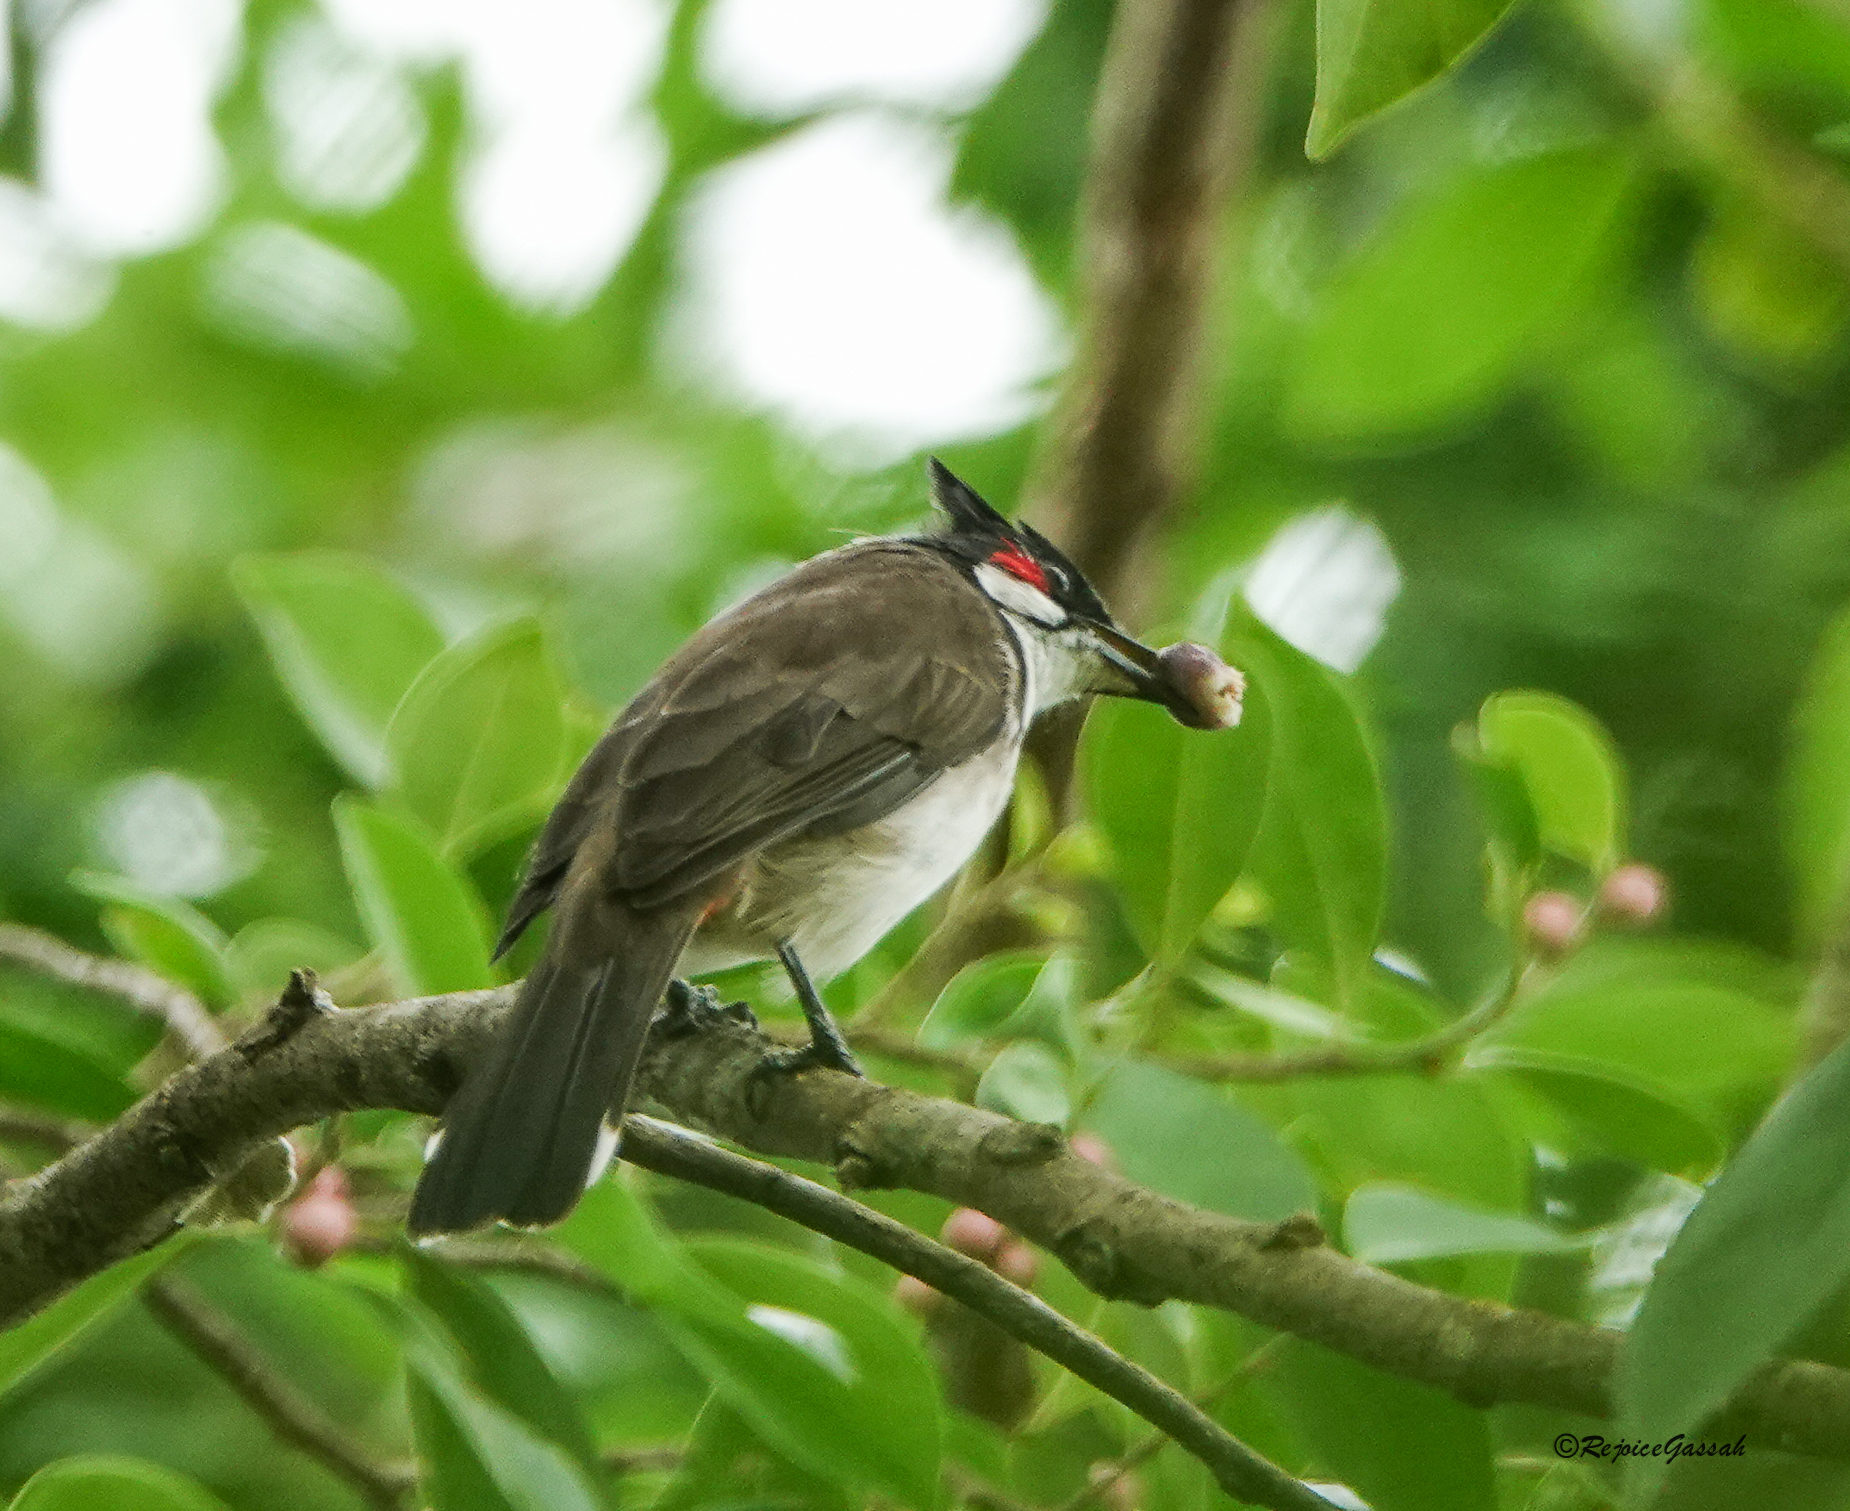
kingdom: Animalia
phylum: Chordata
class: Aves
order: Passeriformes
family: Pycnonotidae
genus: Pycnonotus
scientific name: Pycnonotus jocosus
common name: Red-whiskered bulbul
